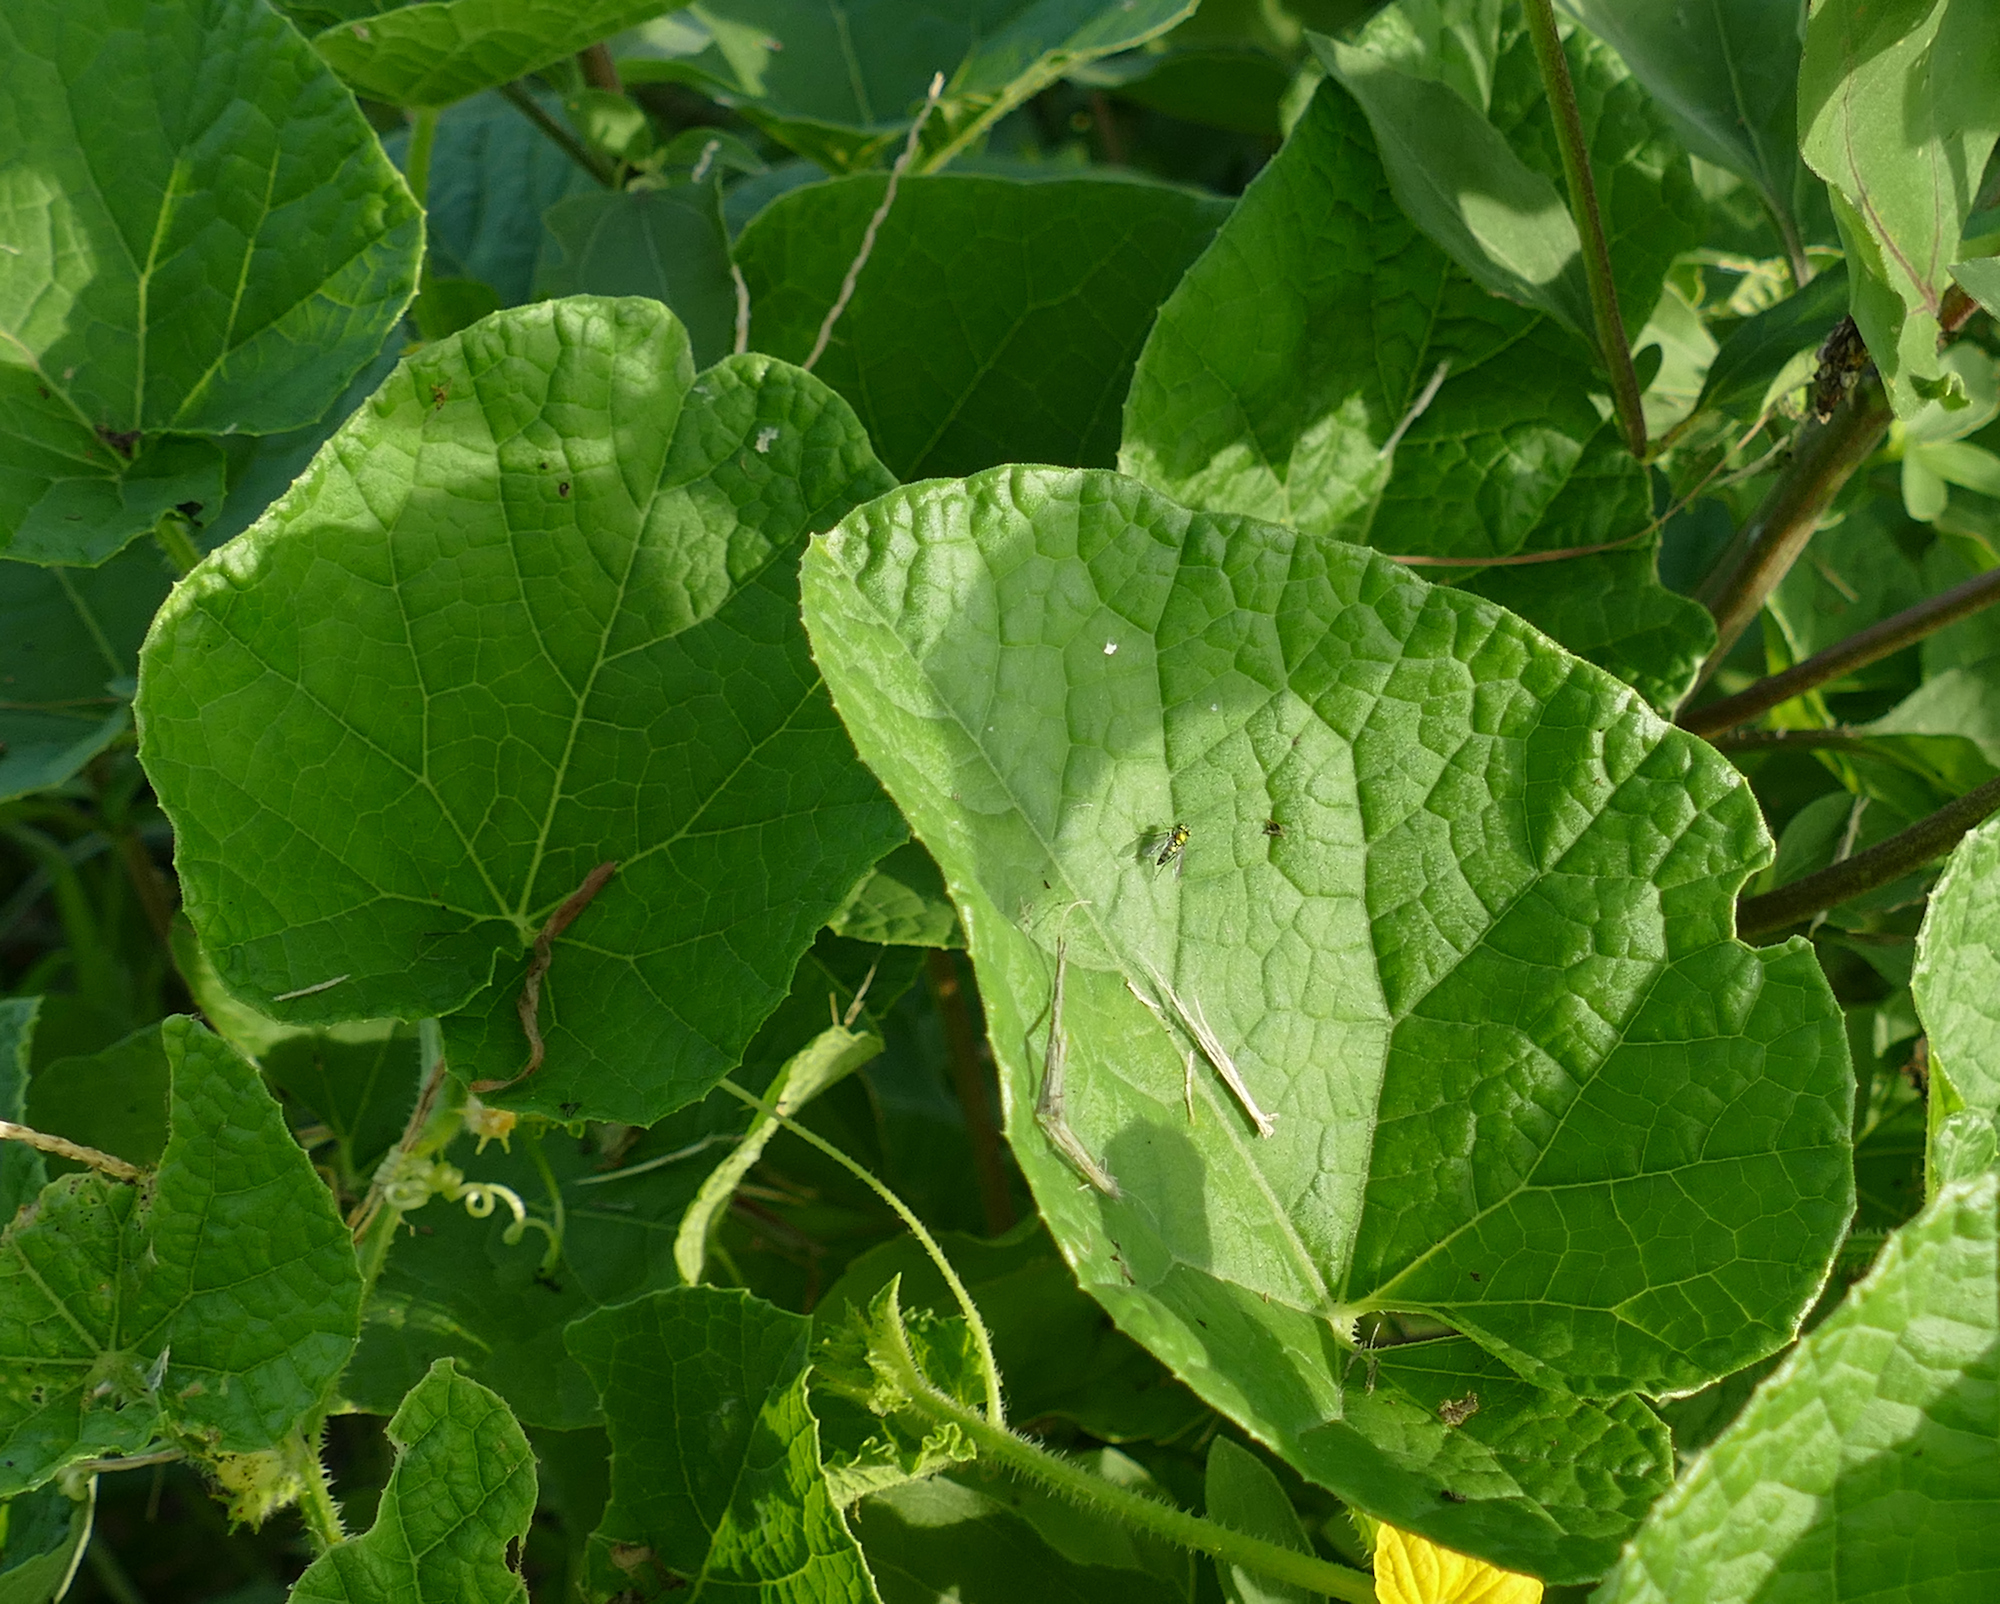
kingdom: Plantae
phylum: Tracheophyta
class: Magnoliopsida
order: Cucurbitales
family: Cucurbitaceae
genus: Cucumis
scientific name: Cucumis melo
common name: Melon
